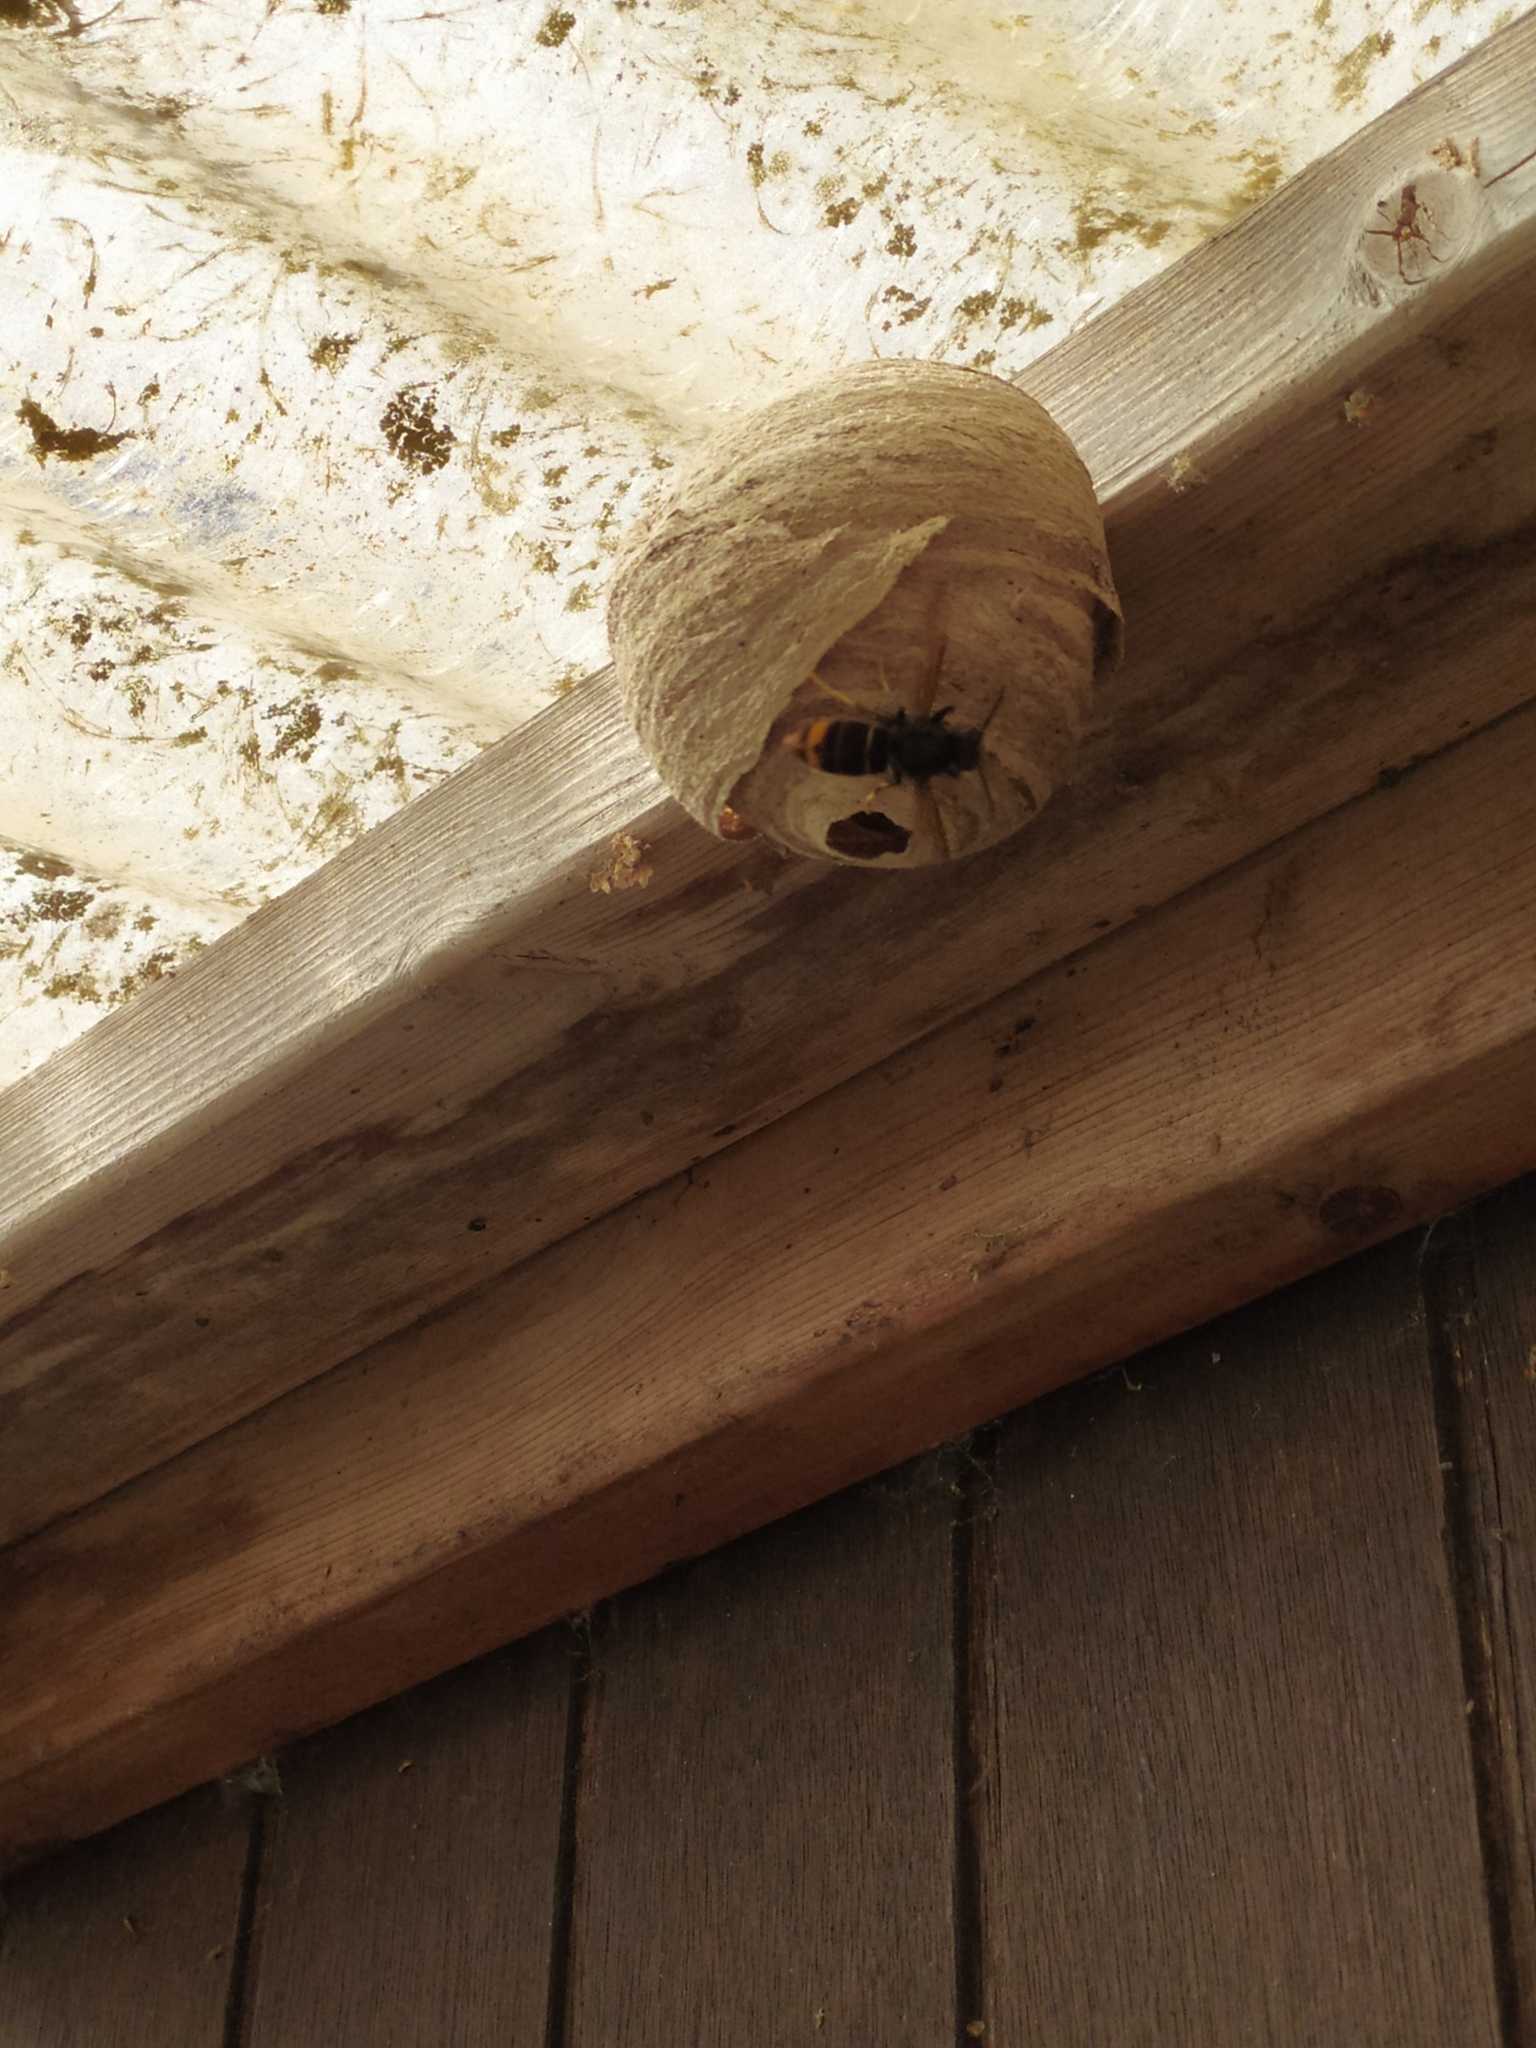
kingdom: Animalia
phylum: Arthropoda
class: Insecta
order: Hymenoptera
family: Vespidae
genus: Vespa
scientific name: Vespa velutina
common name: Asian hornet
